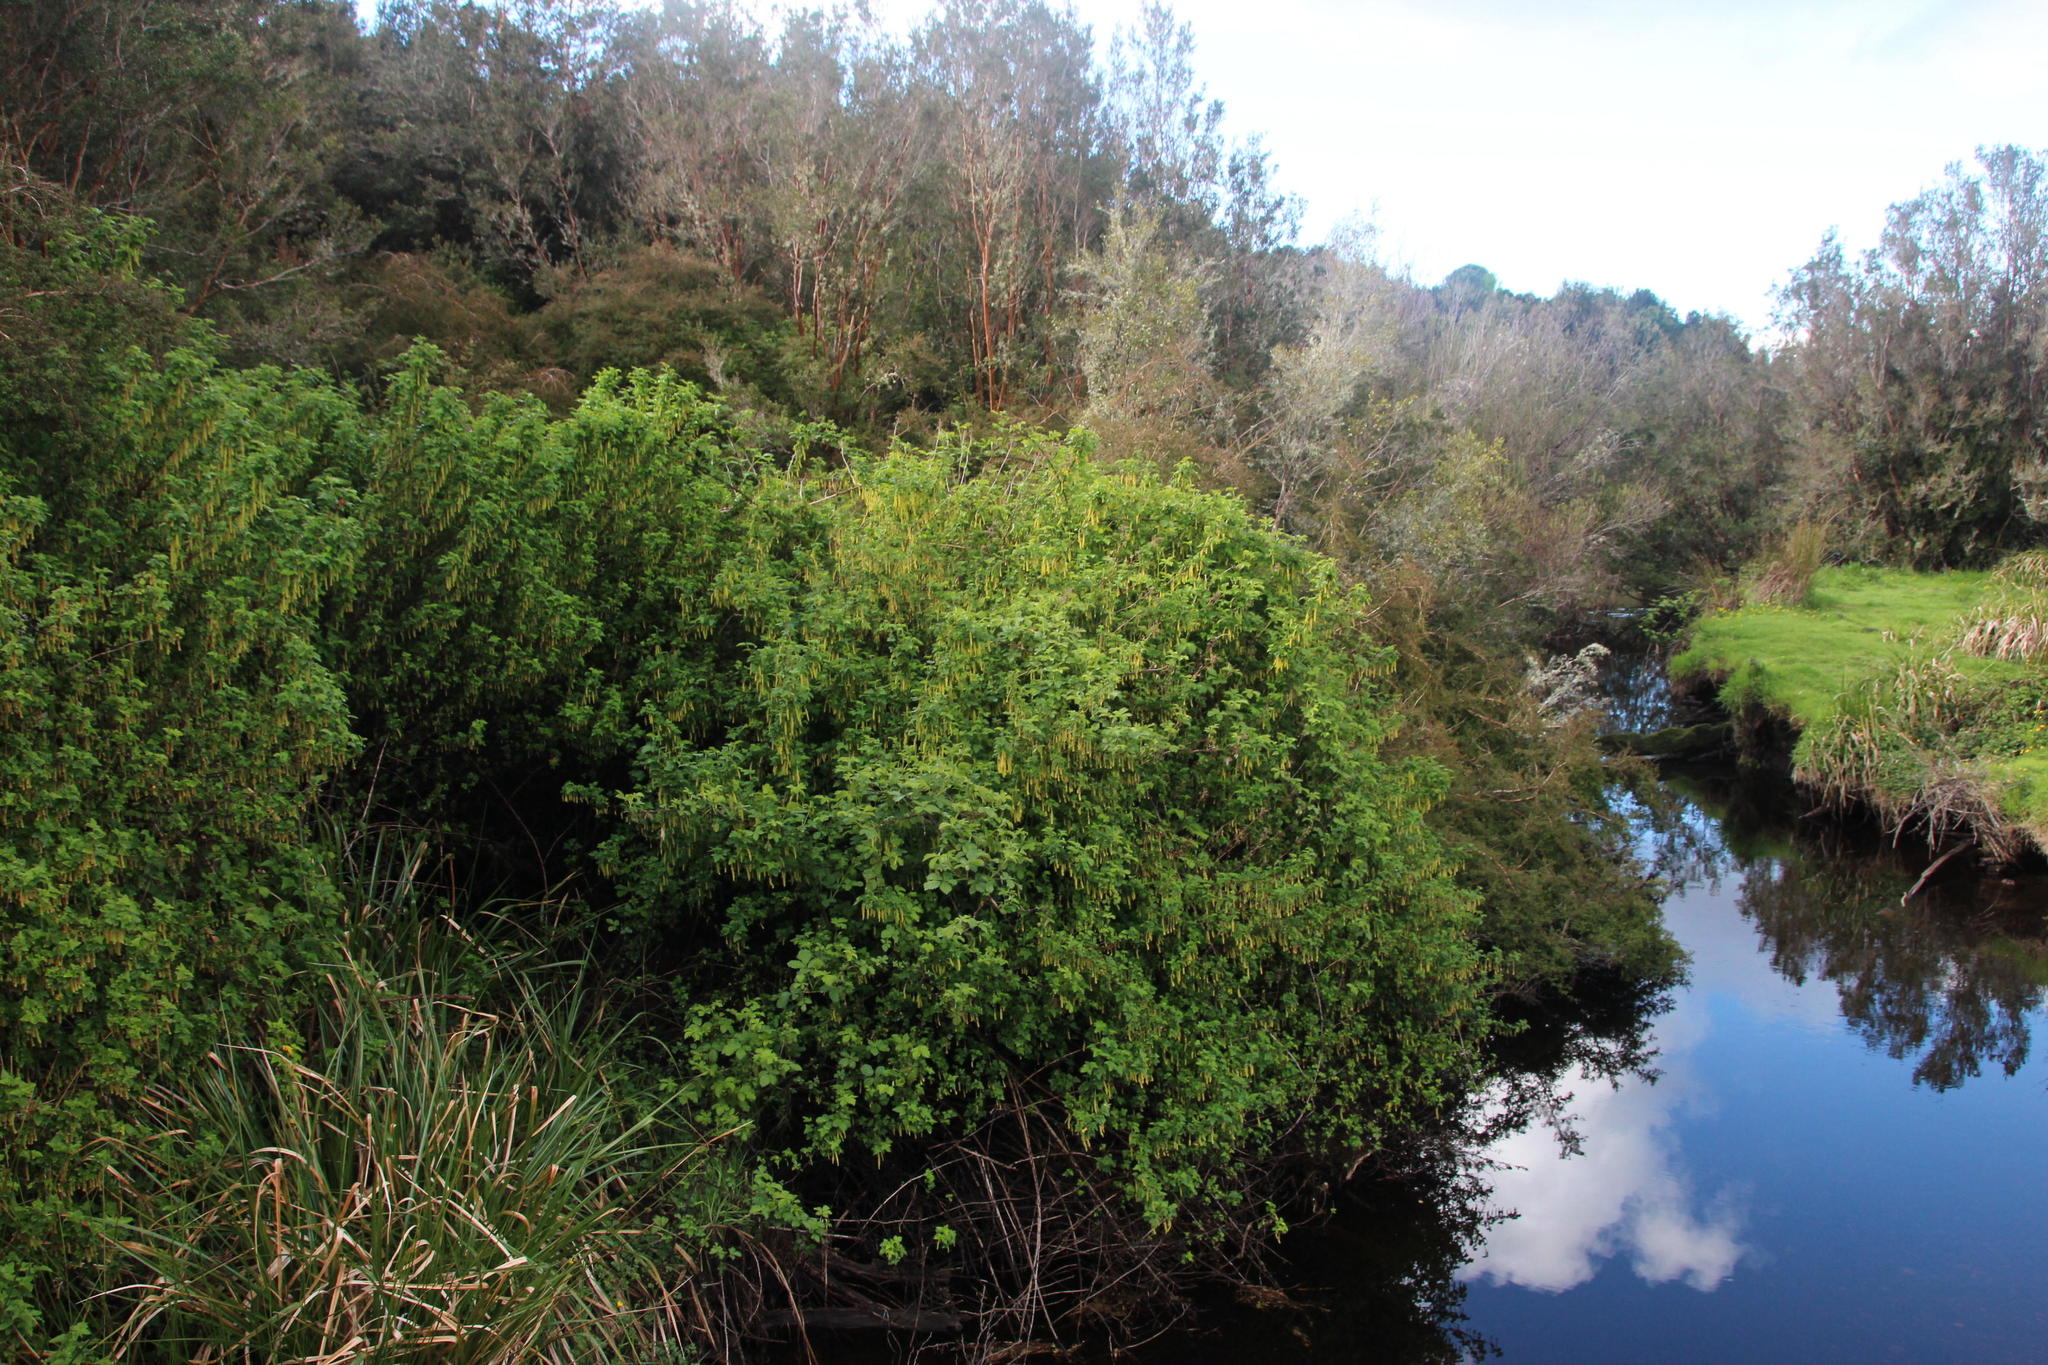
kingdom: Plantae
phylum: Tracheophyta
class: Magnoliopsida
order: Saxifragales
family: Grossulariaceae
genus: Ribes
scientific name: Ribes magellanicum
